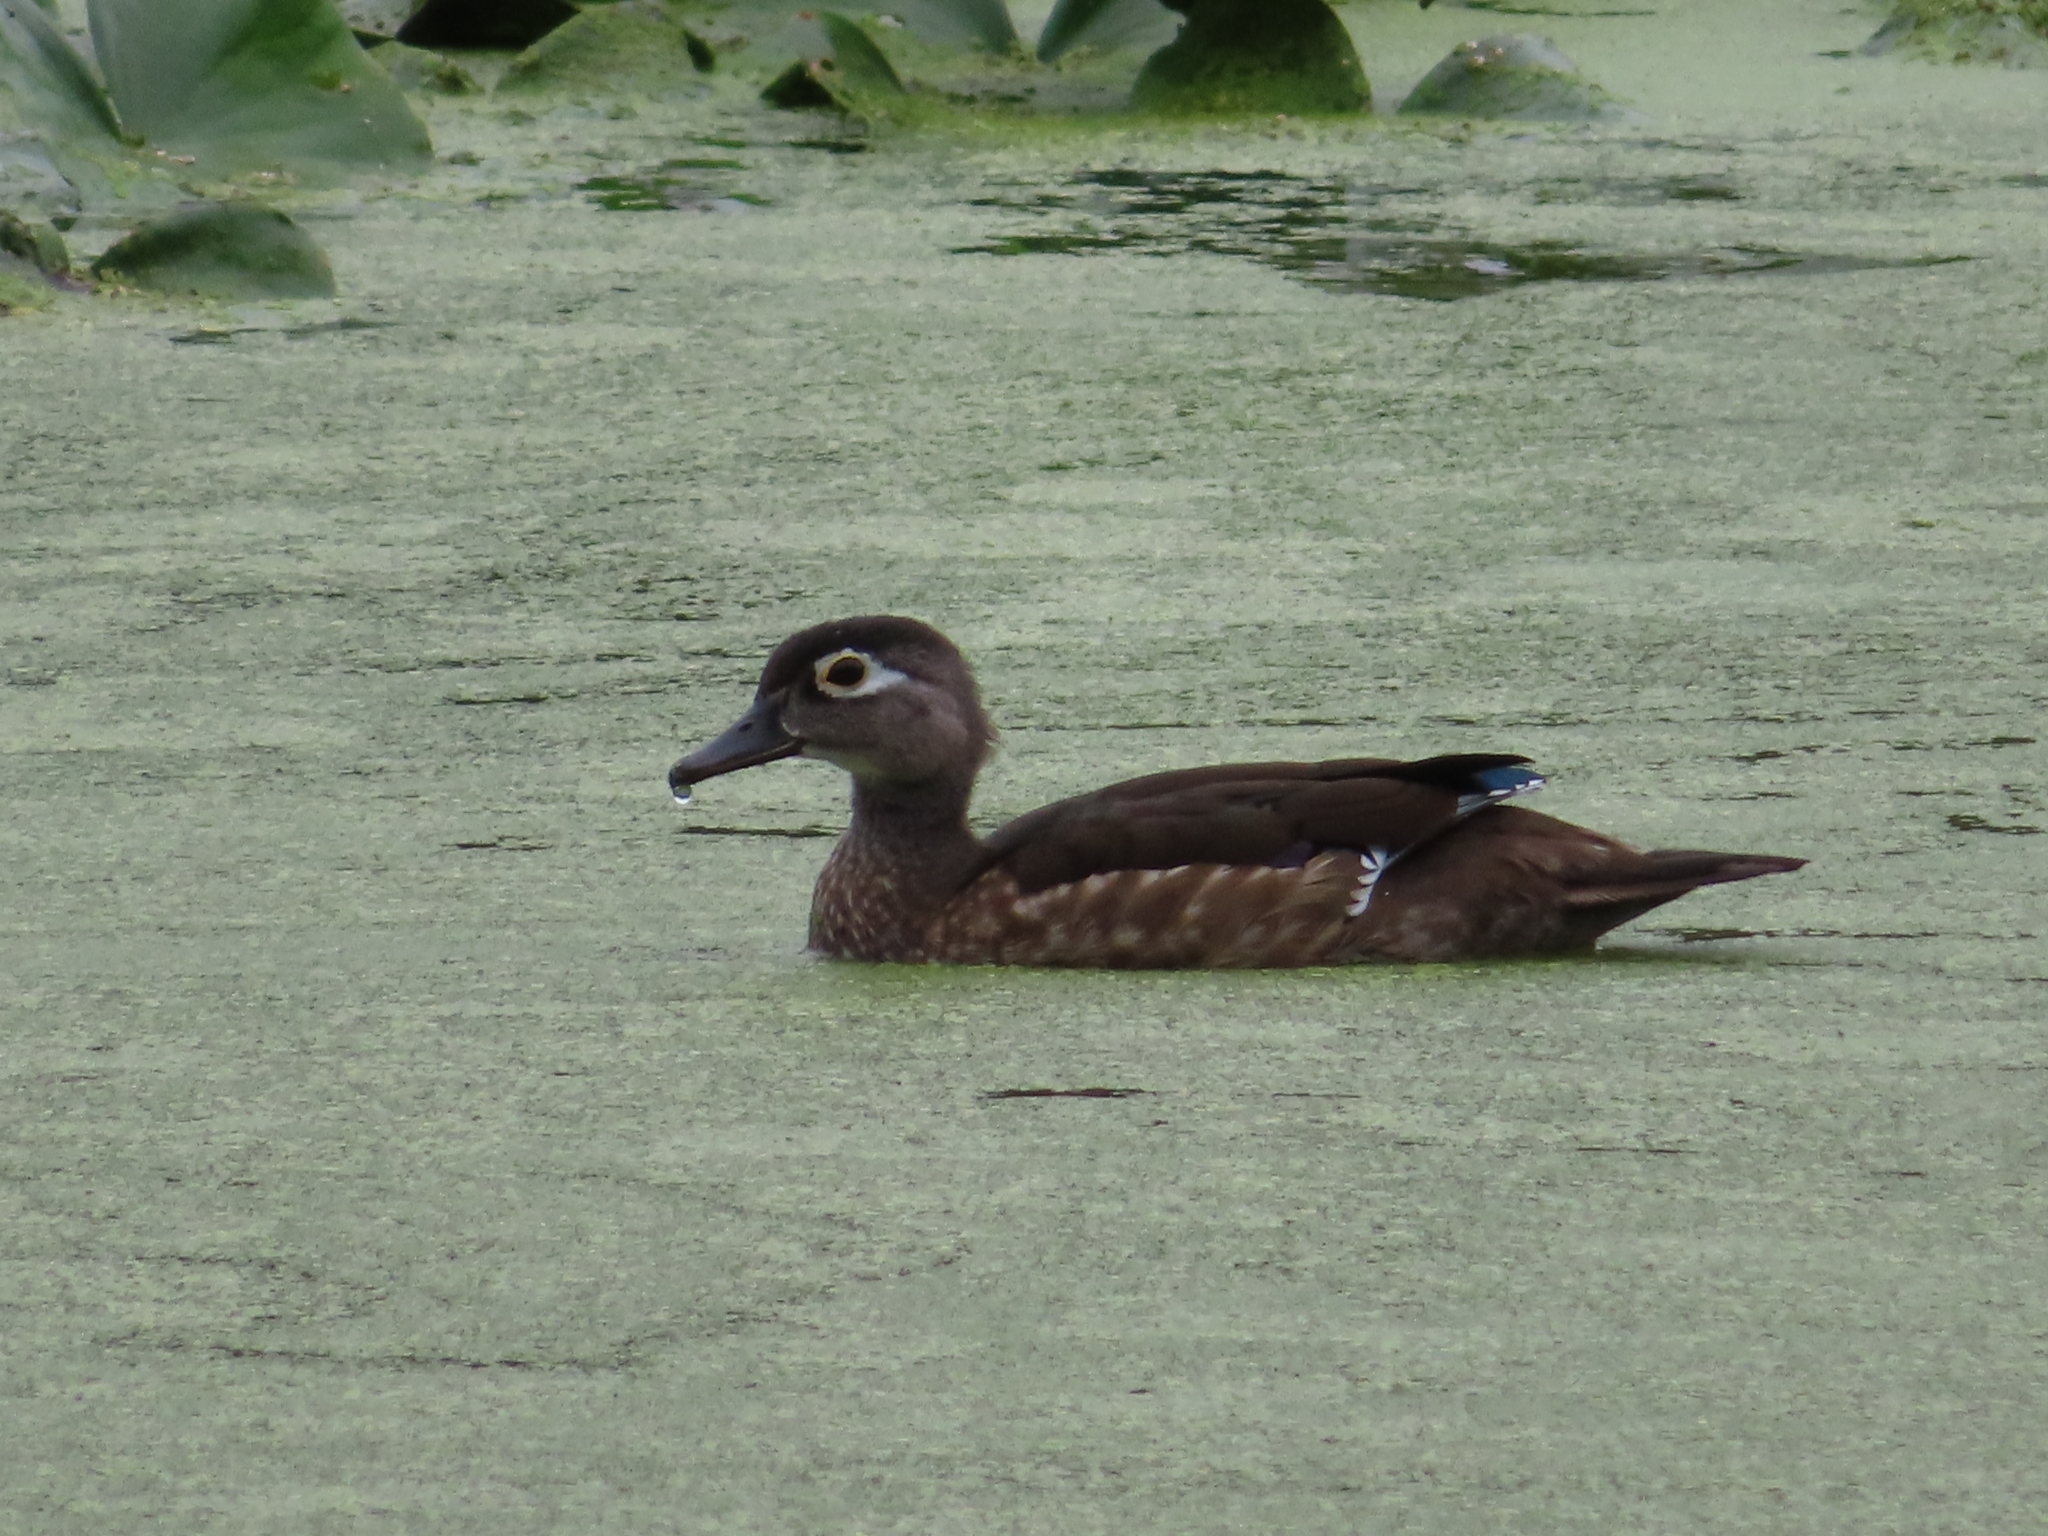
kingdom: Animalia
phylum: Chordata
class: Aves
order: Anseriformes
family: Anatidae
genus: Aix
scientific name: Aix sponsa
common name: Wood duck
